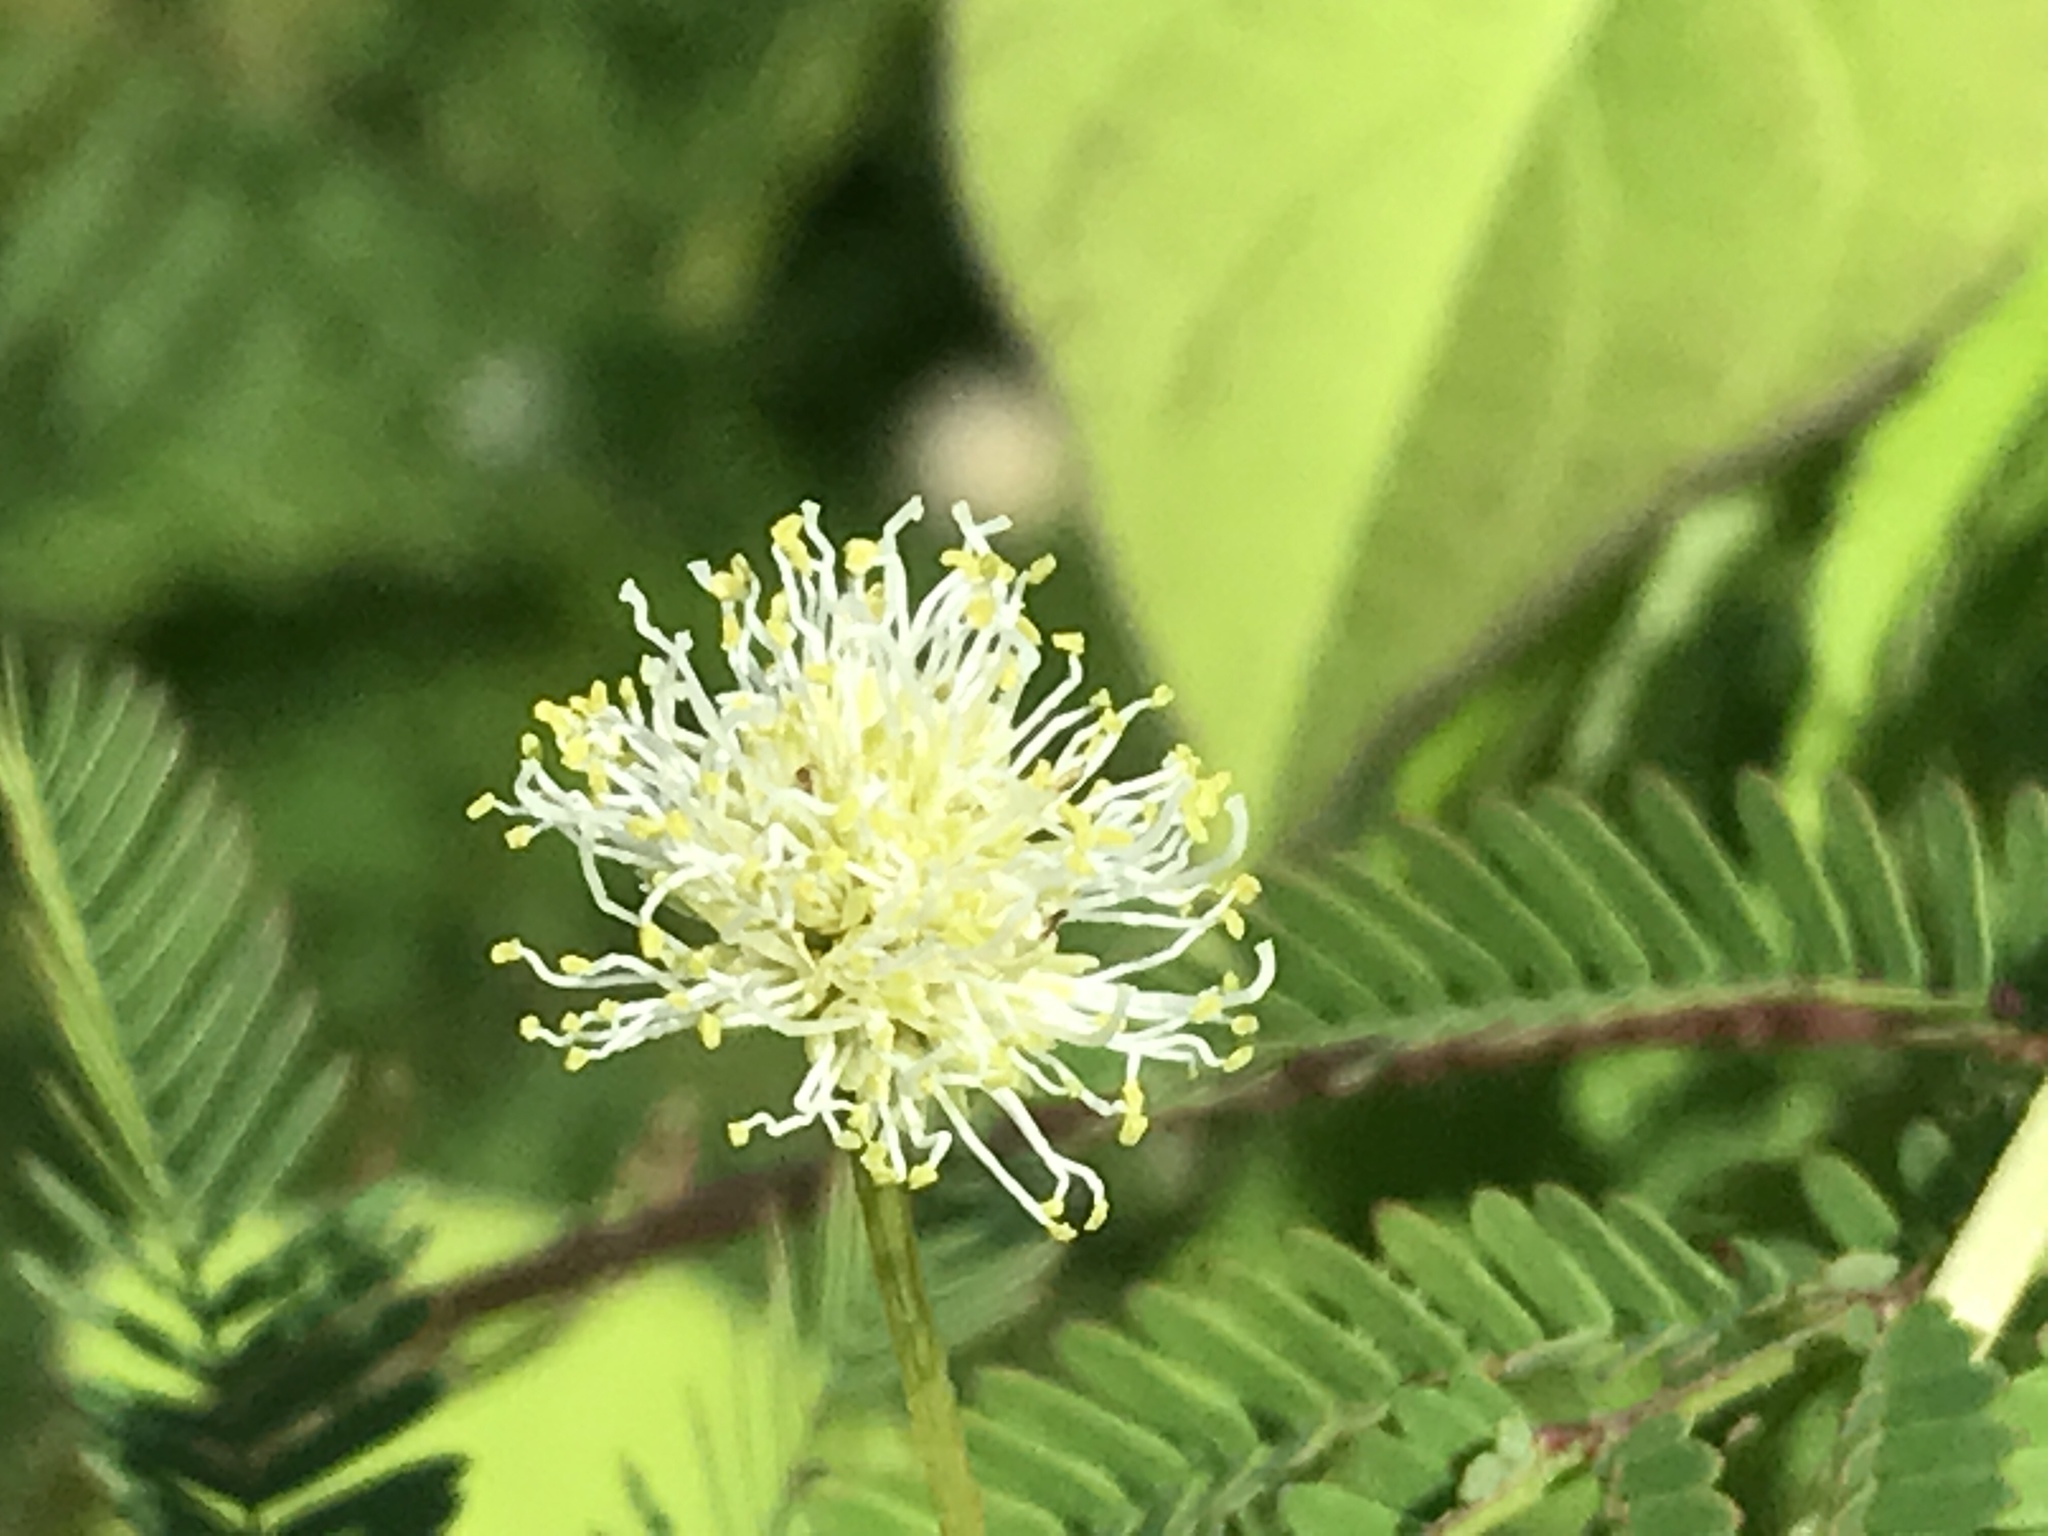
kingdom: Plantae
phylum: Tracheophyta
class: Magnoliopsida
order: Fabales
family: Fabaceae
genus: Desmanthus
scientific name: Desmanthus illinoensis
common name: Illinois bundle-flower
